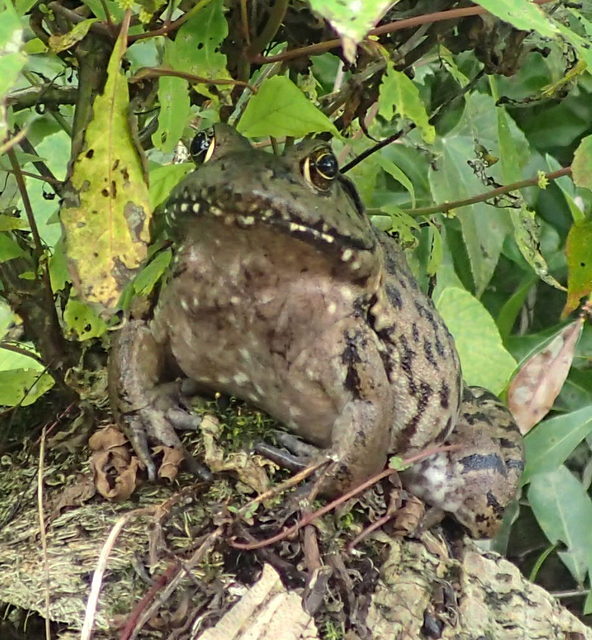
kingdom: Animalia
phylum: Chordata
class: Amphibia
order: Anura
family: Ranidae
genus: Lithobates
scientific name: Lithobates heckscheri
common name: River frog
